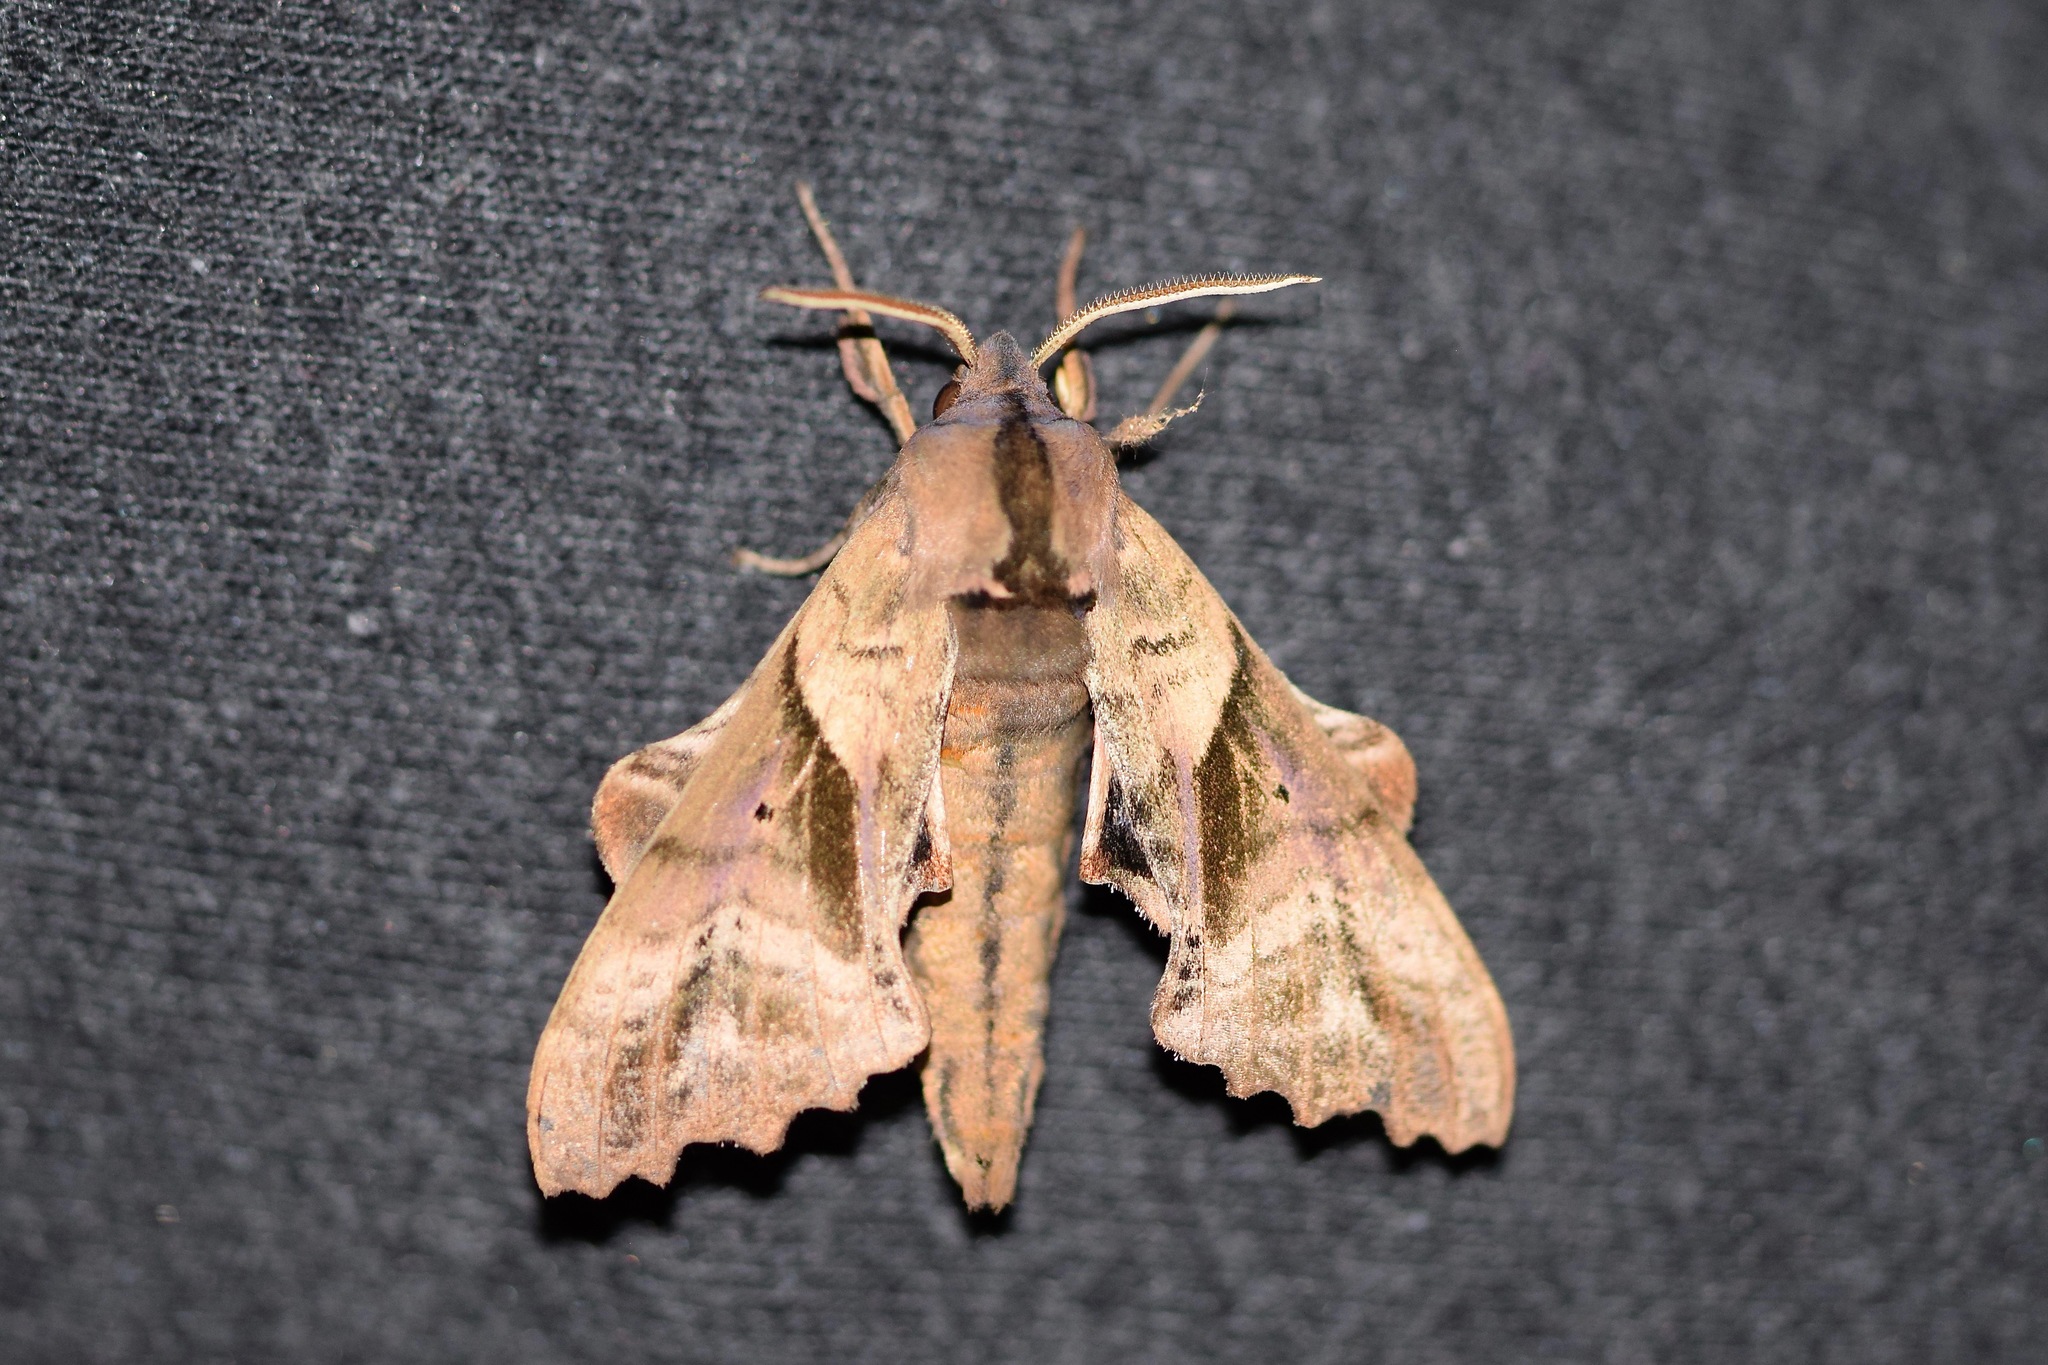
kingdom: Animalia
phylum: Arthropoda
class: Insecta
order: Lepidoptera
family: Sphingidae
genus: Paonias
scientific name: Paonias excaecata
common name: Blind-eyed sphinx
